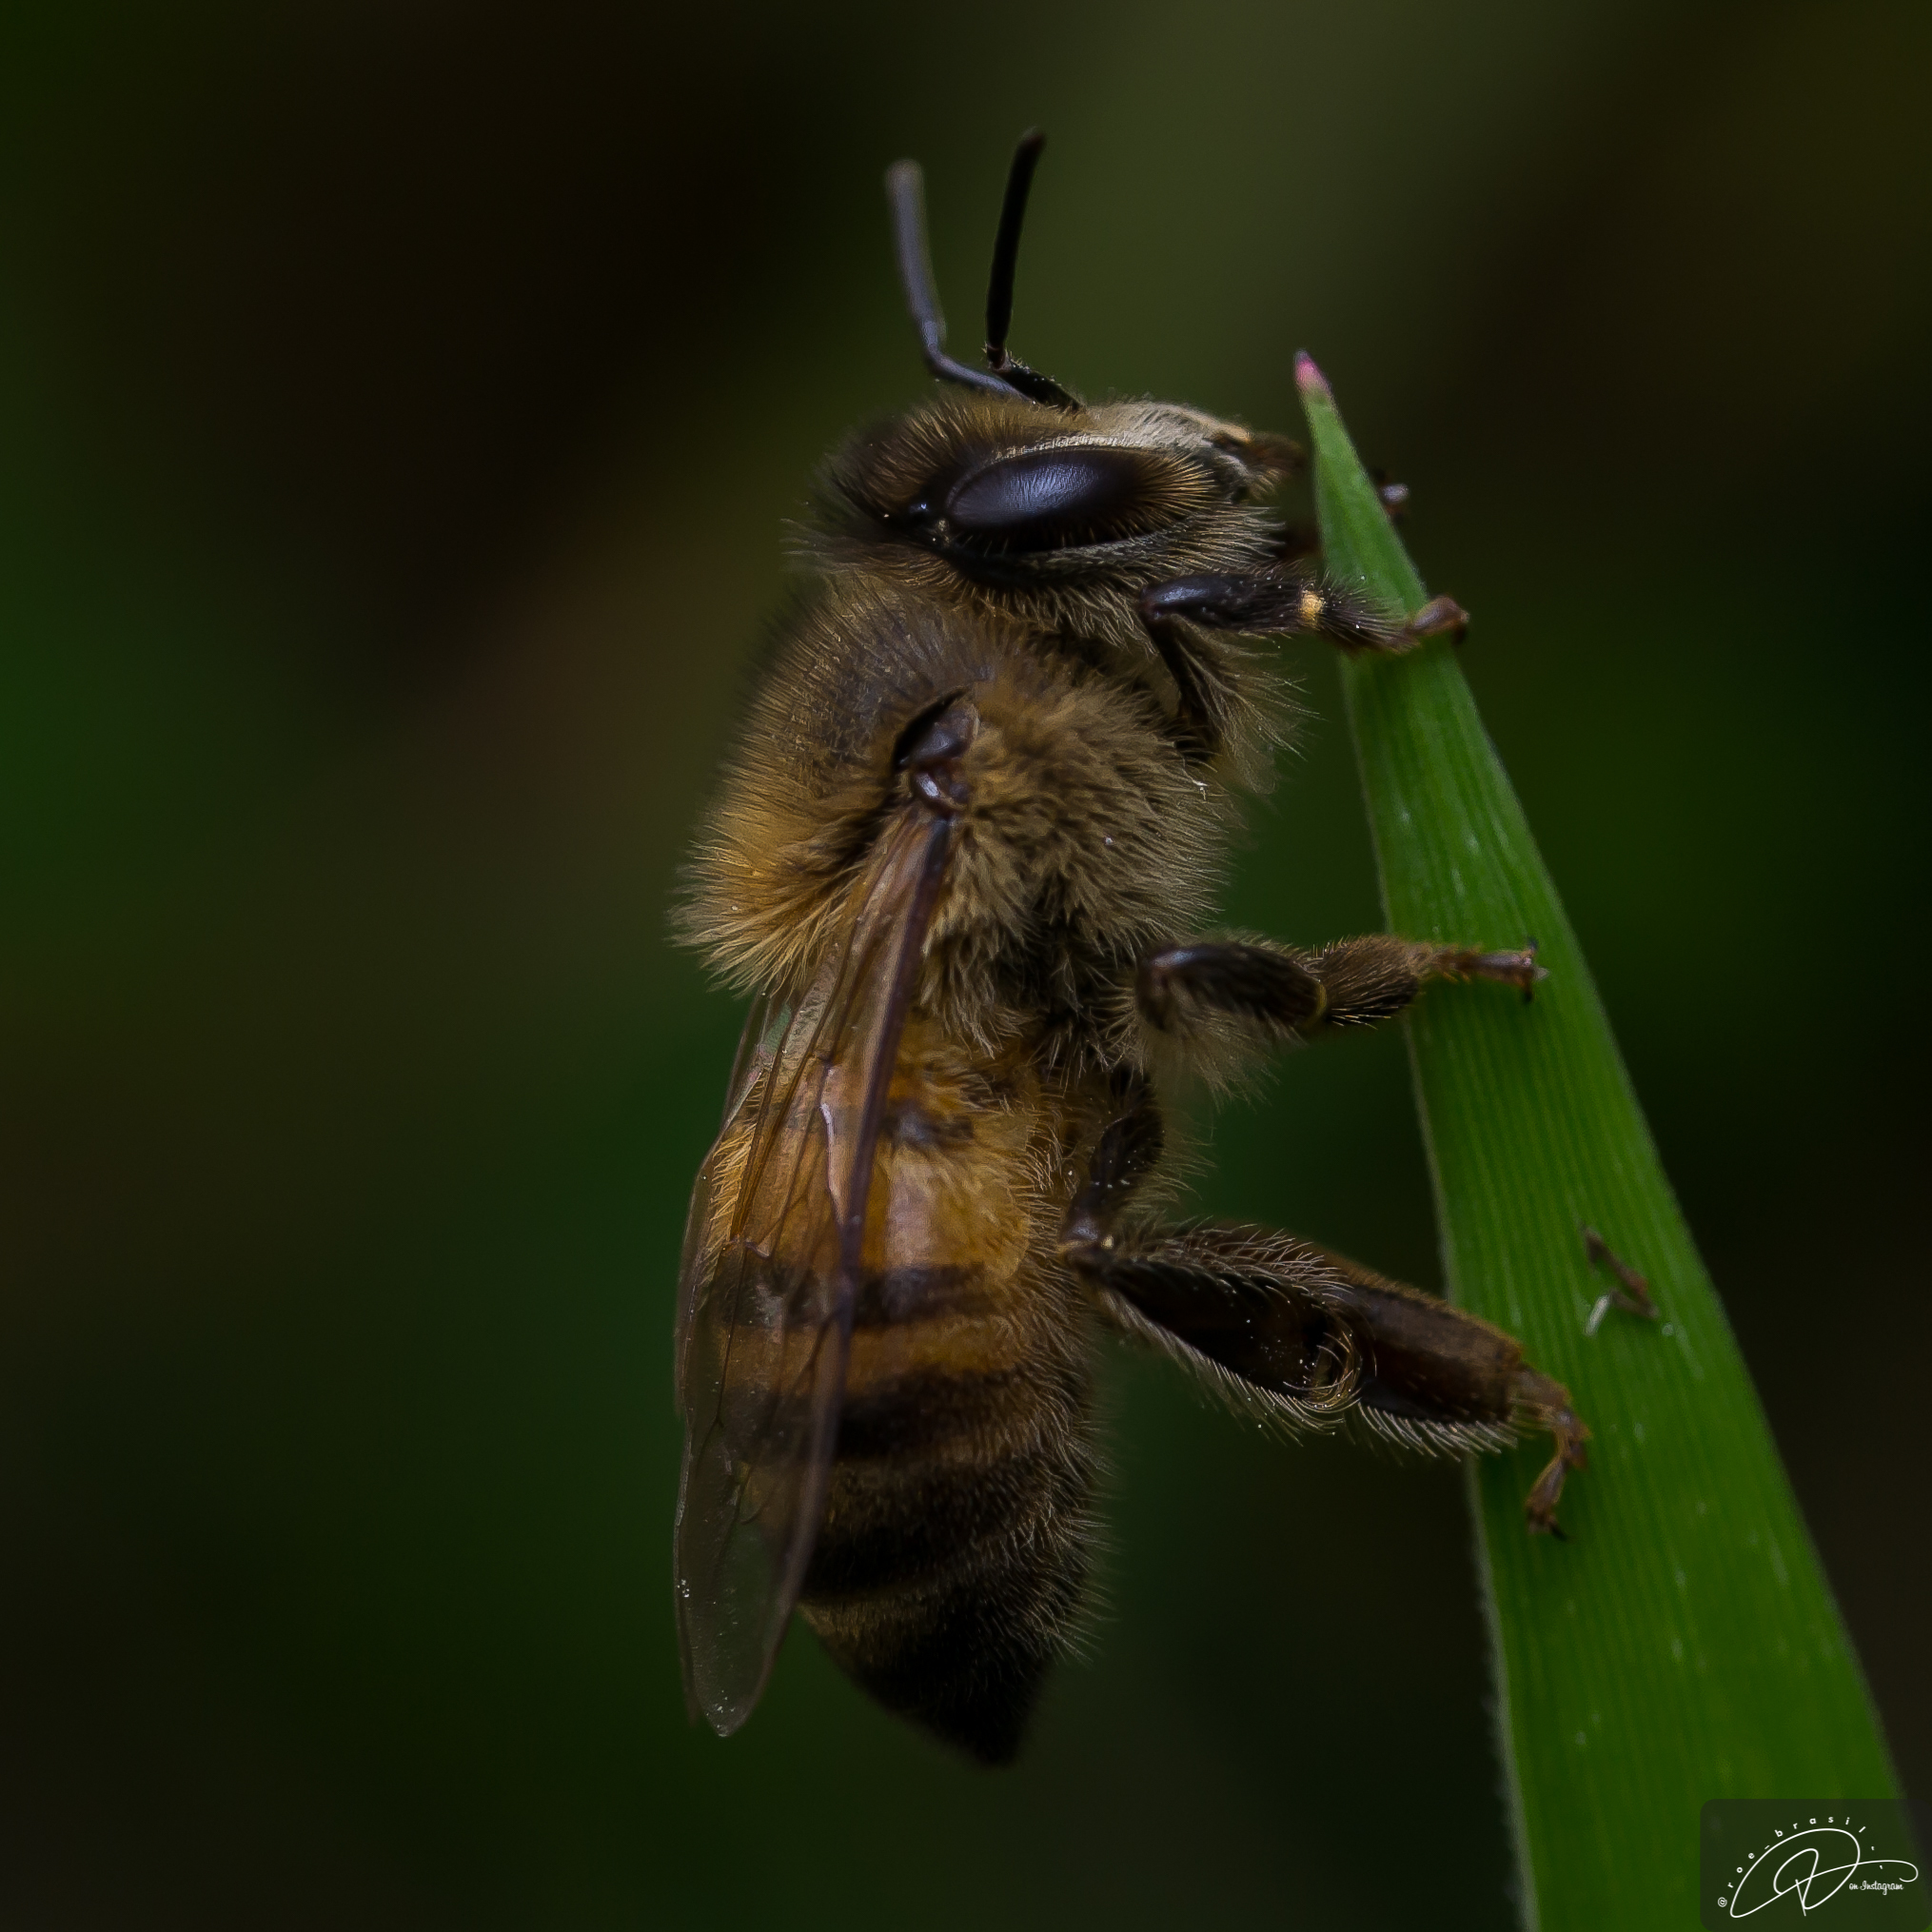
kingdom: Animalia
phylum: Arthropoda
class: Insecta
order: Hymenoptera
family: Apidae
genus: Apis
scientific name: Apis mellifera
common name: Honey bee
